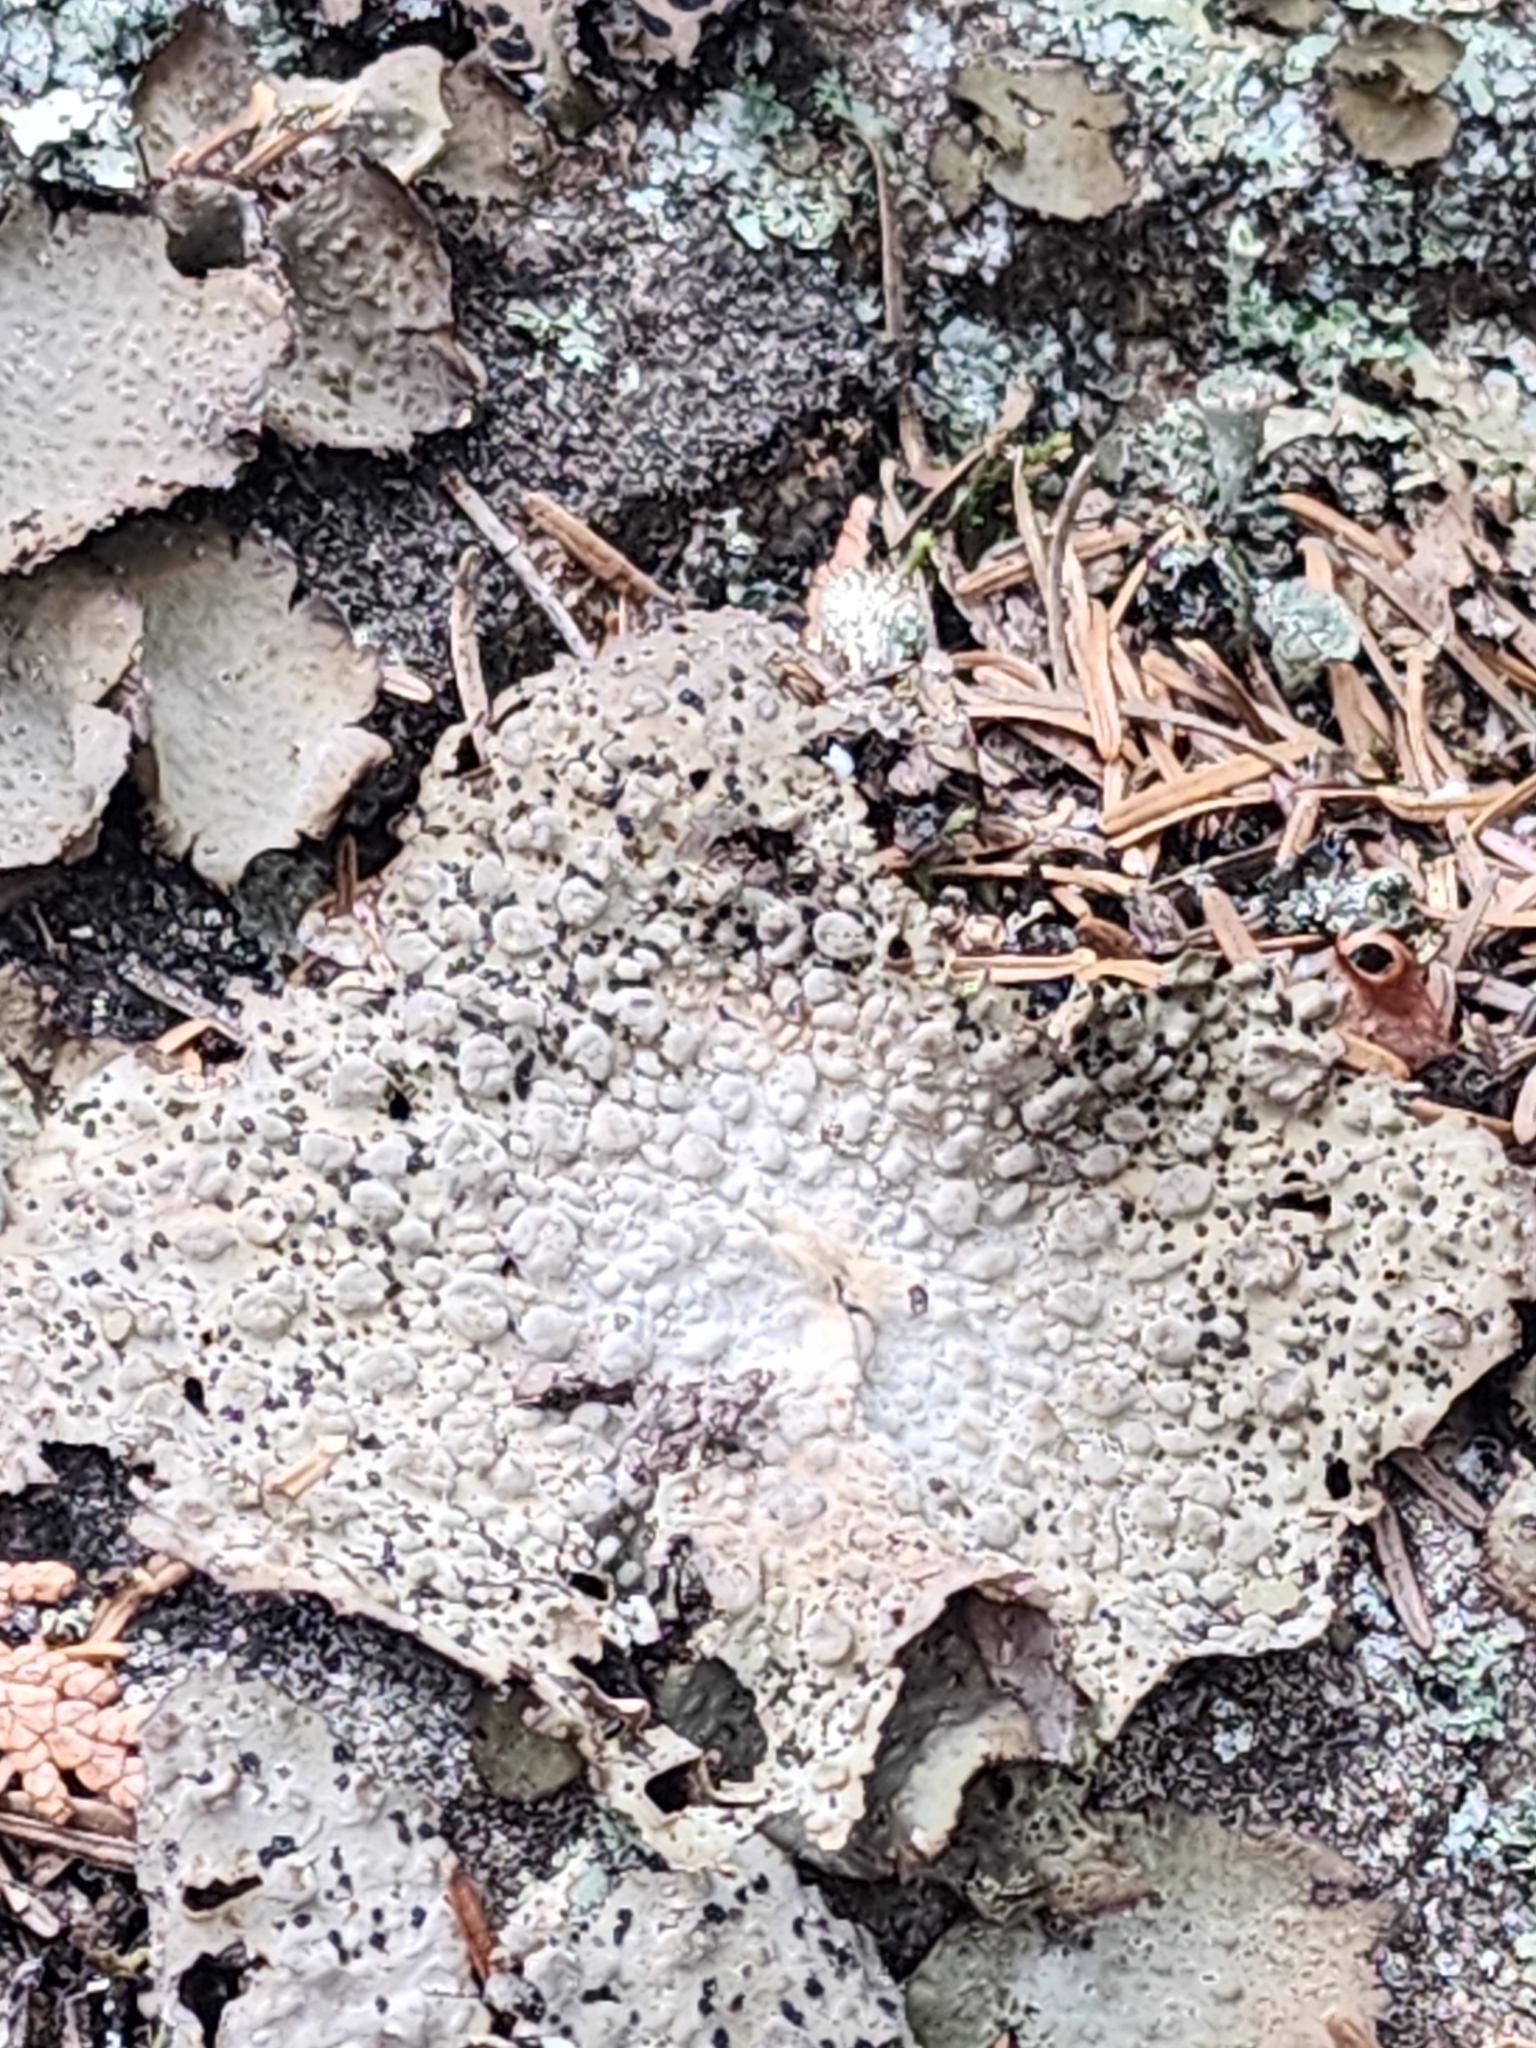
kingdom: Fungi
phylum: Ascomycota
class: Lecanoromycetes
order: Umbilicariales
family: Umbilicariaceae
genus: Lasallia
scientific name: Lasallia papulosa
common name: Common toadskin lichen
